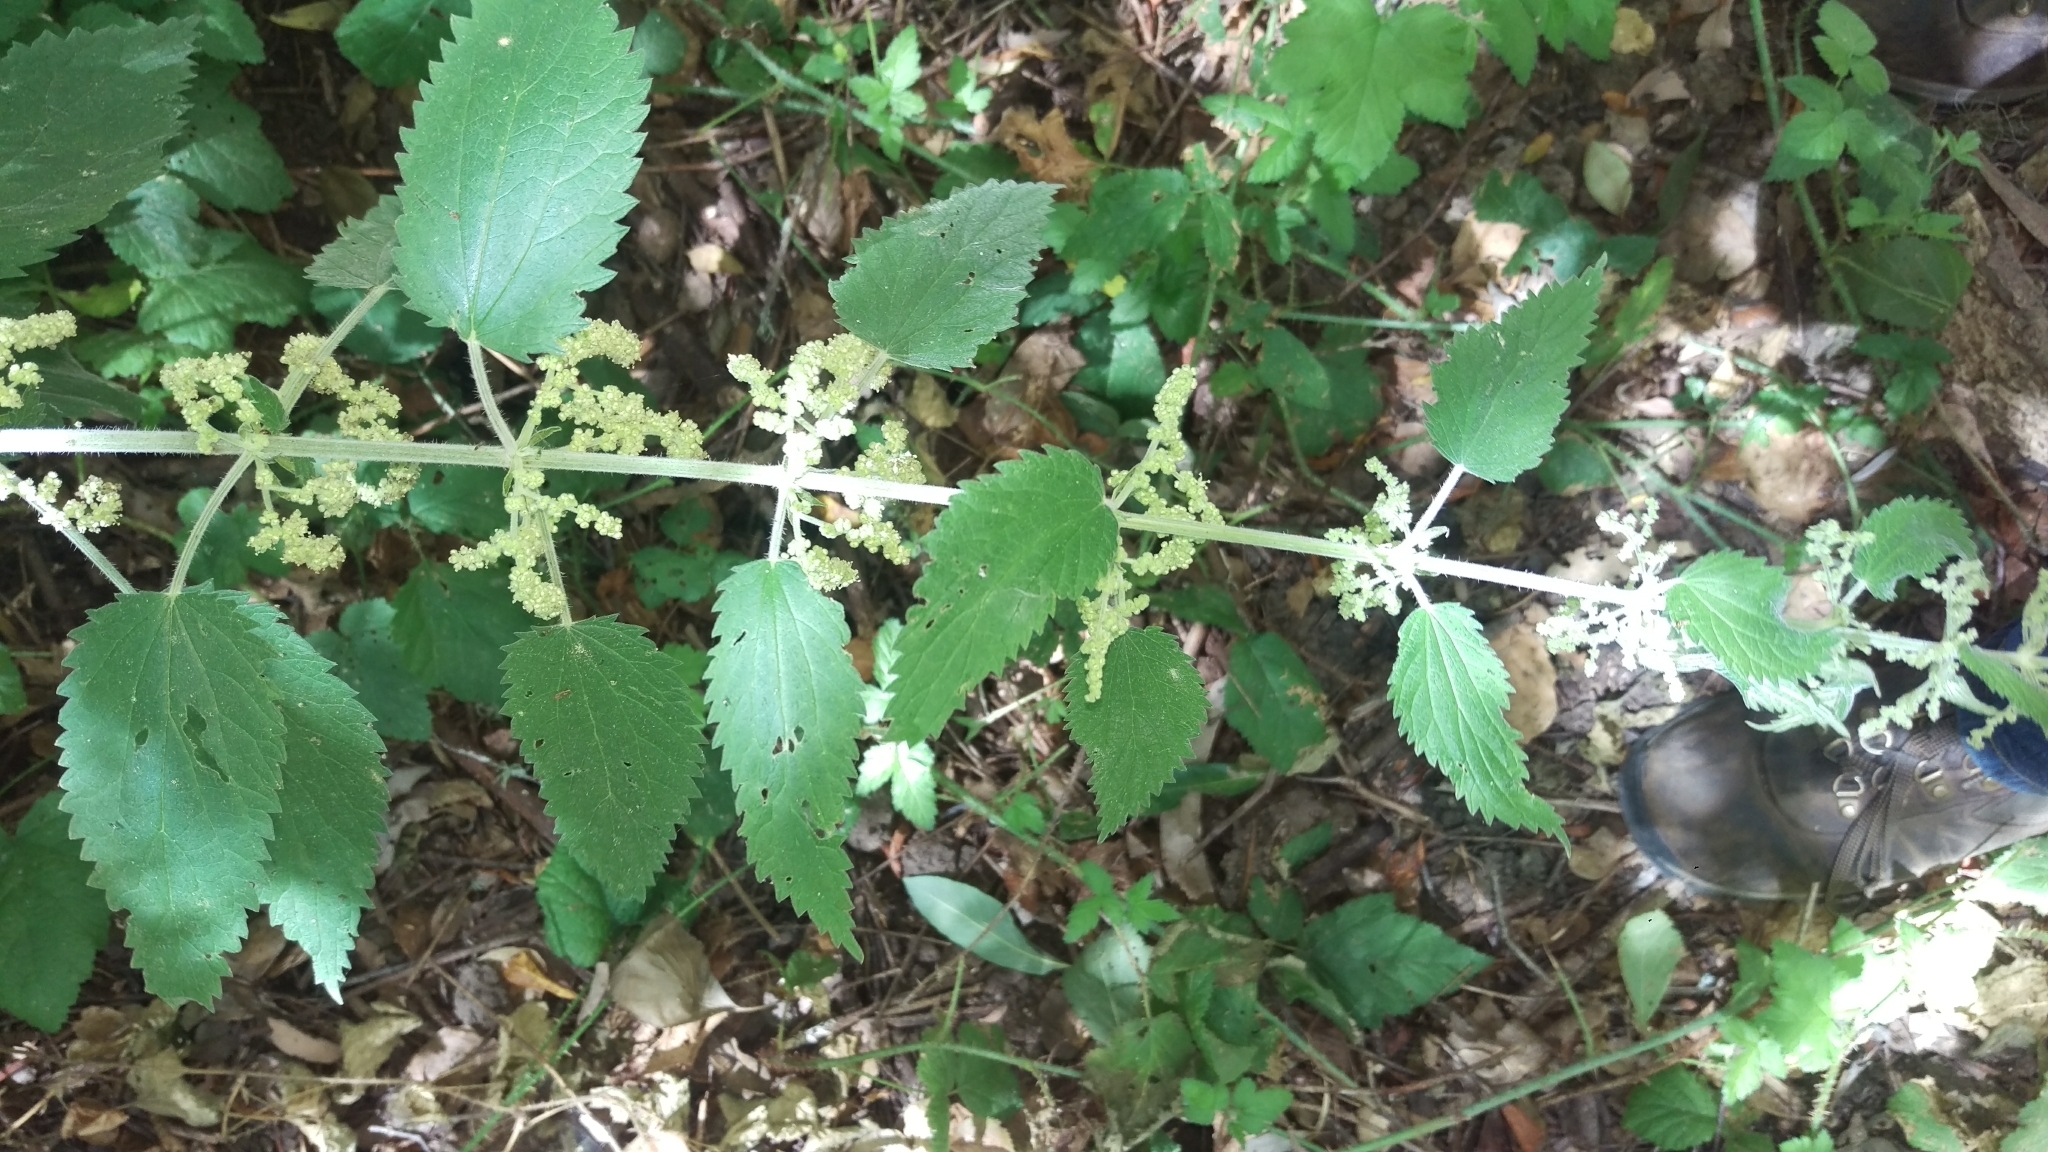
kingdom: Plantae
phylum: Tracheophyta
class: Magnoliopsida
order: Rosales
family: Urticaceae
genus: Urtica
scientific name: Urtica dioica
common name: Common nettle
